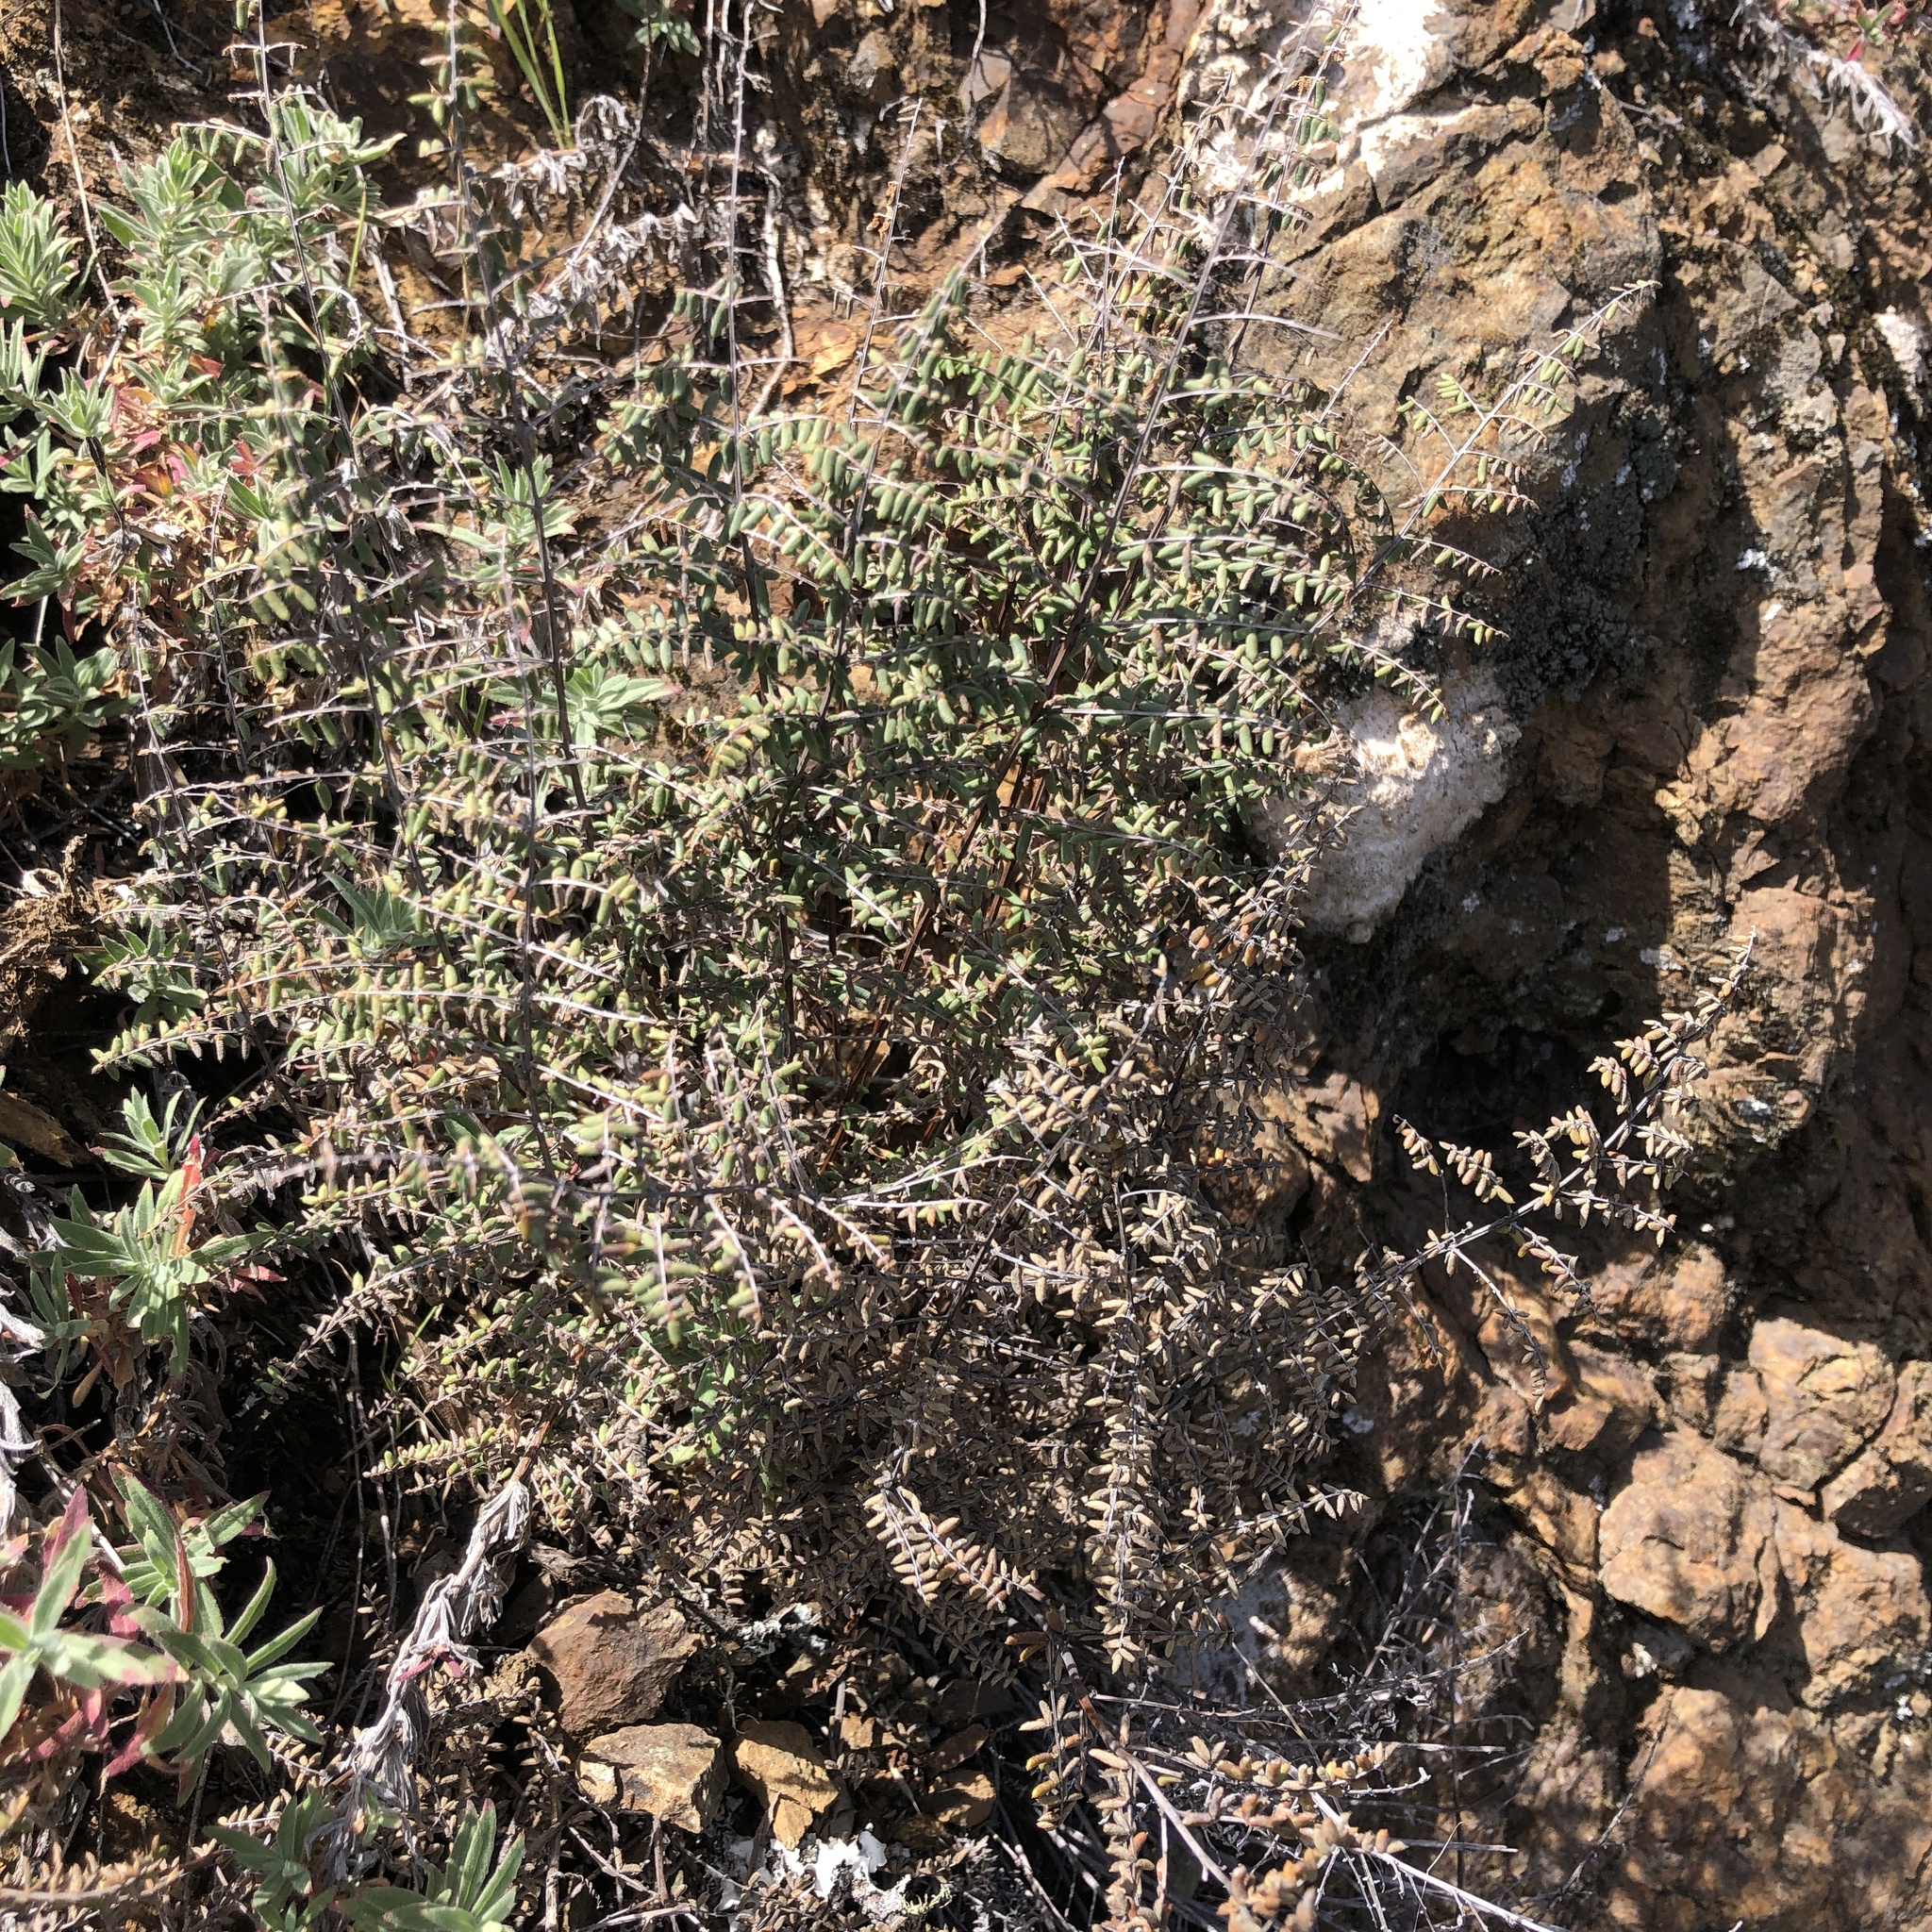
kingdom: Plantae
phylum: Tracheophyta
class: Polypodiopsida
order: Polypodiales
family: Pteridaceae
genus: Pellaea
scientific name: Pellaea mucronata
